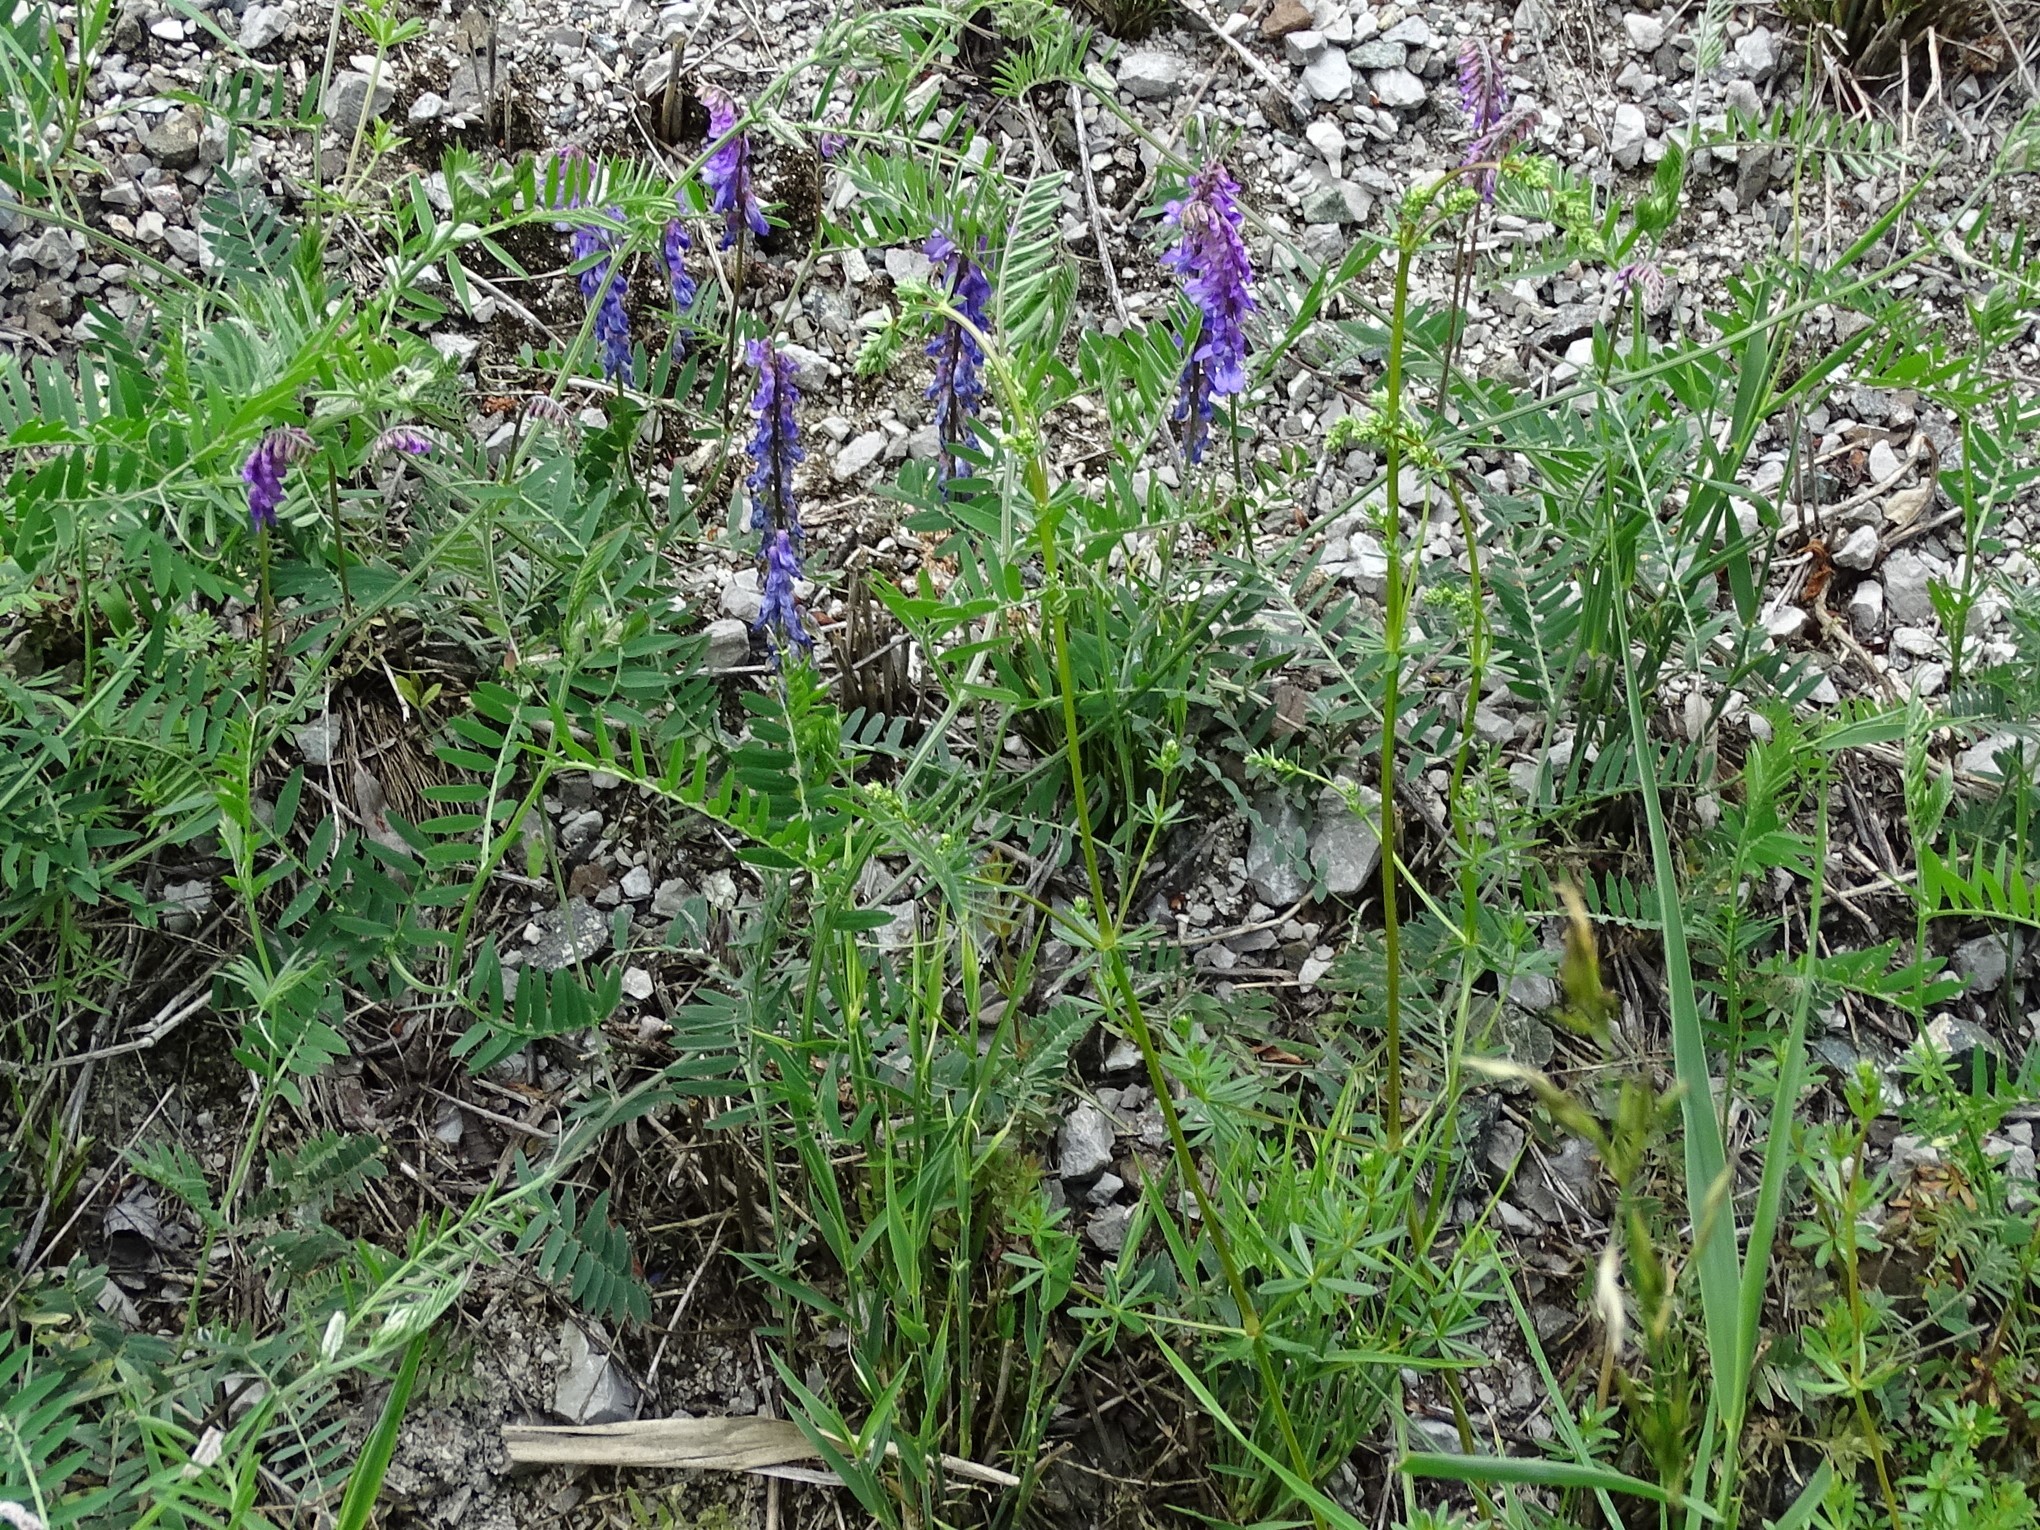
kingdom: Plantae
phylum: Tracheophyta
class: Magnoliopsida
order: Fabales
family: Fabaceae
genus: Vicia
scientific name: Vicia cracca
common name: Bird vetch
